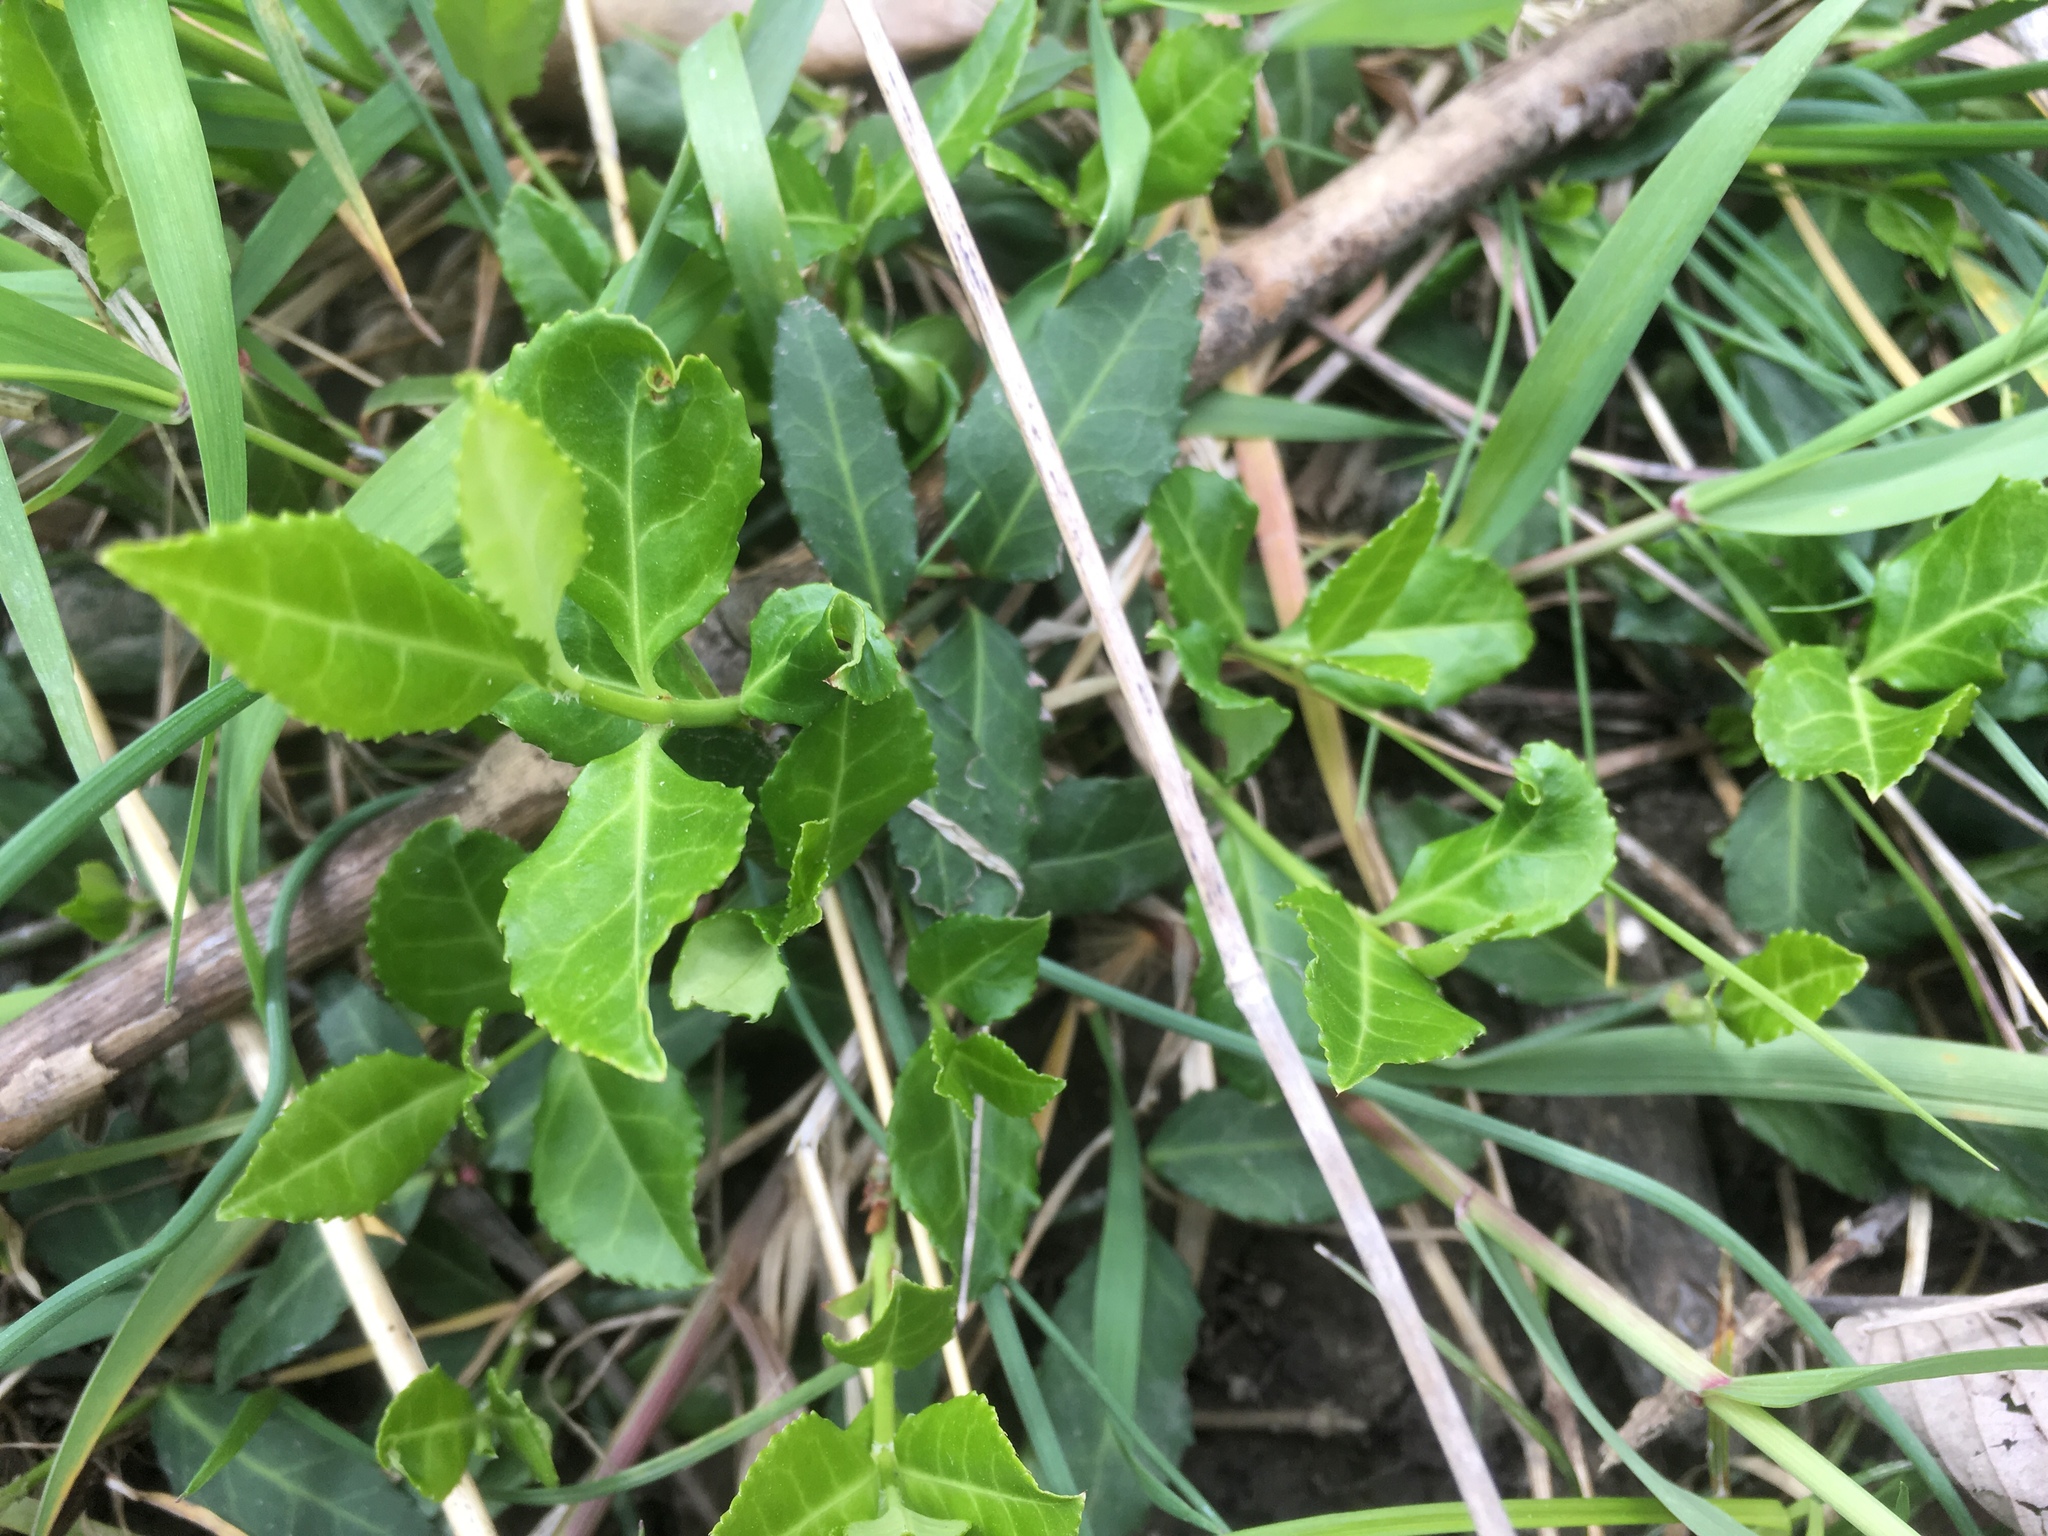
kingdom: Plantae
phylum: Tracheophyta
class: Magnoliopsida
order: Celastrales
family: Celastraceae
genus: Euonymus
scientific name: Euonymus fortunei
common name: Climbing euonymus
